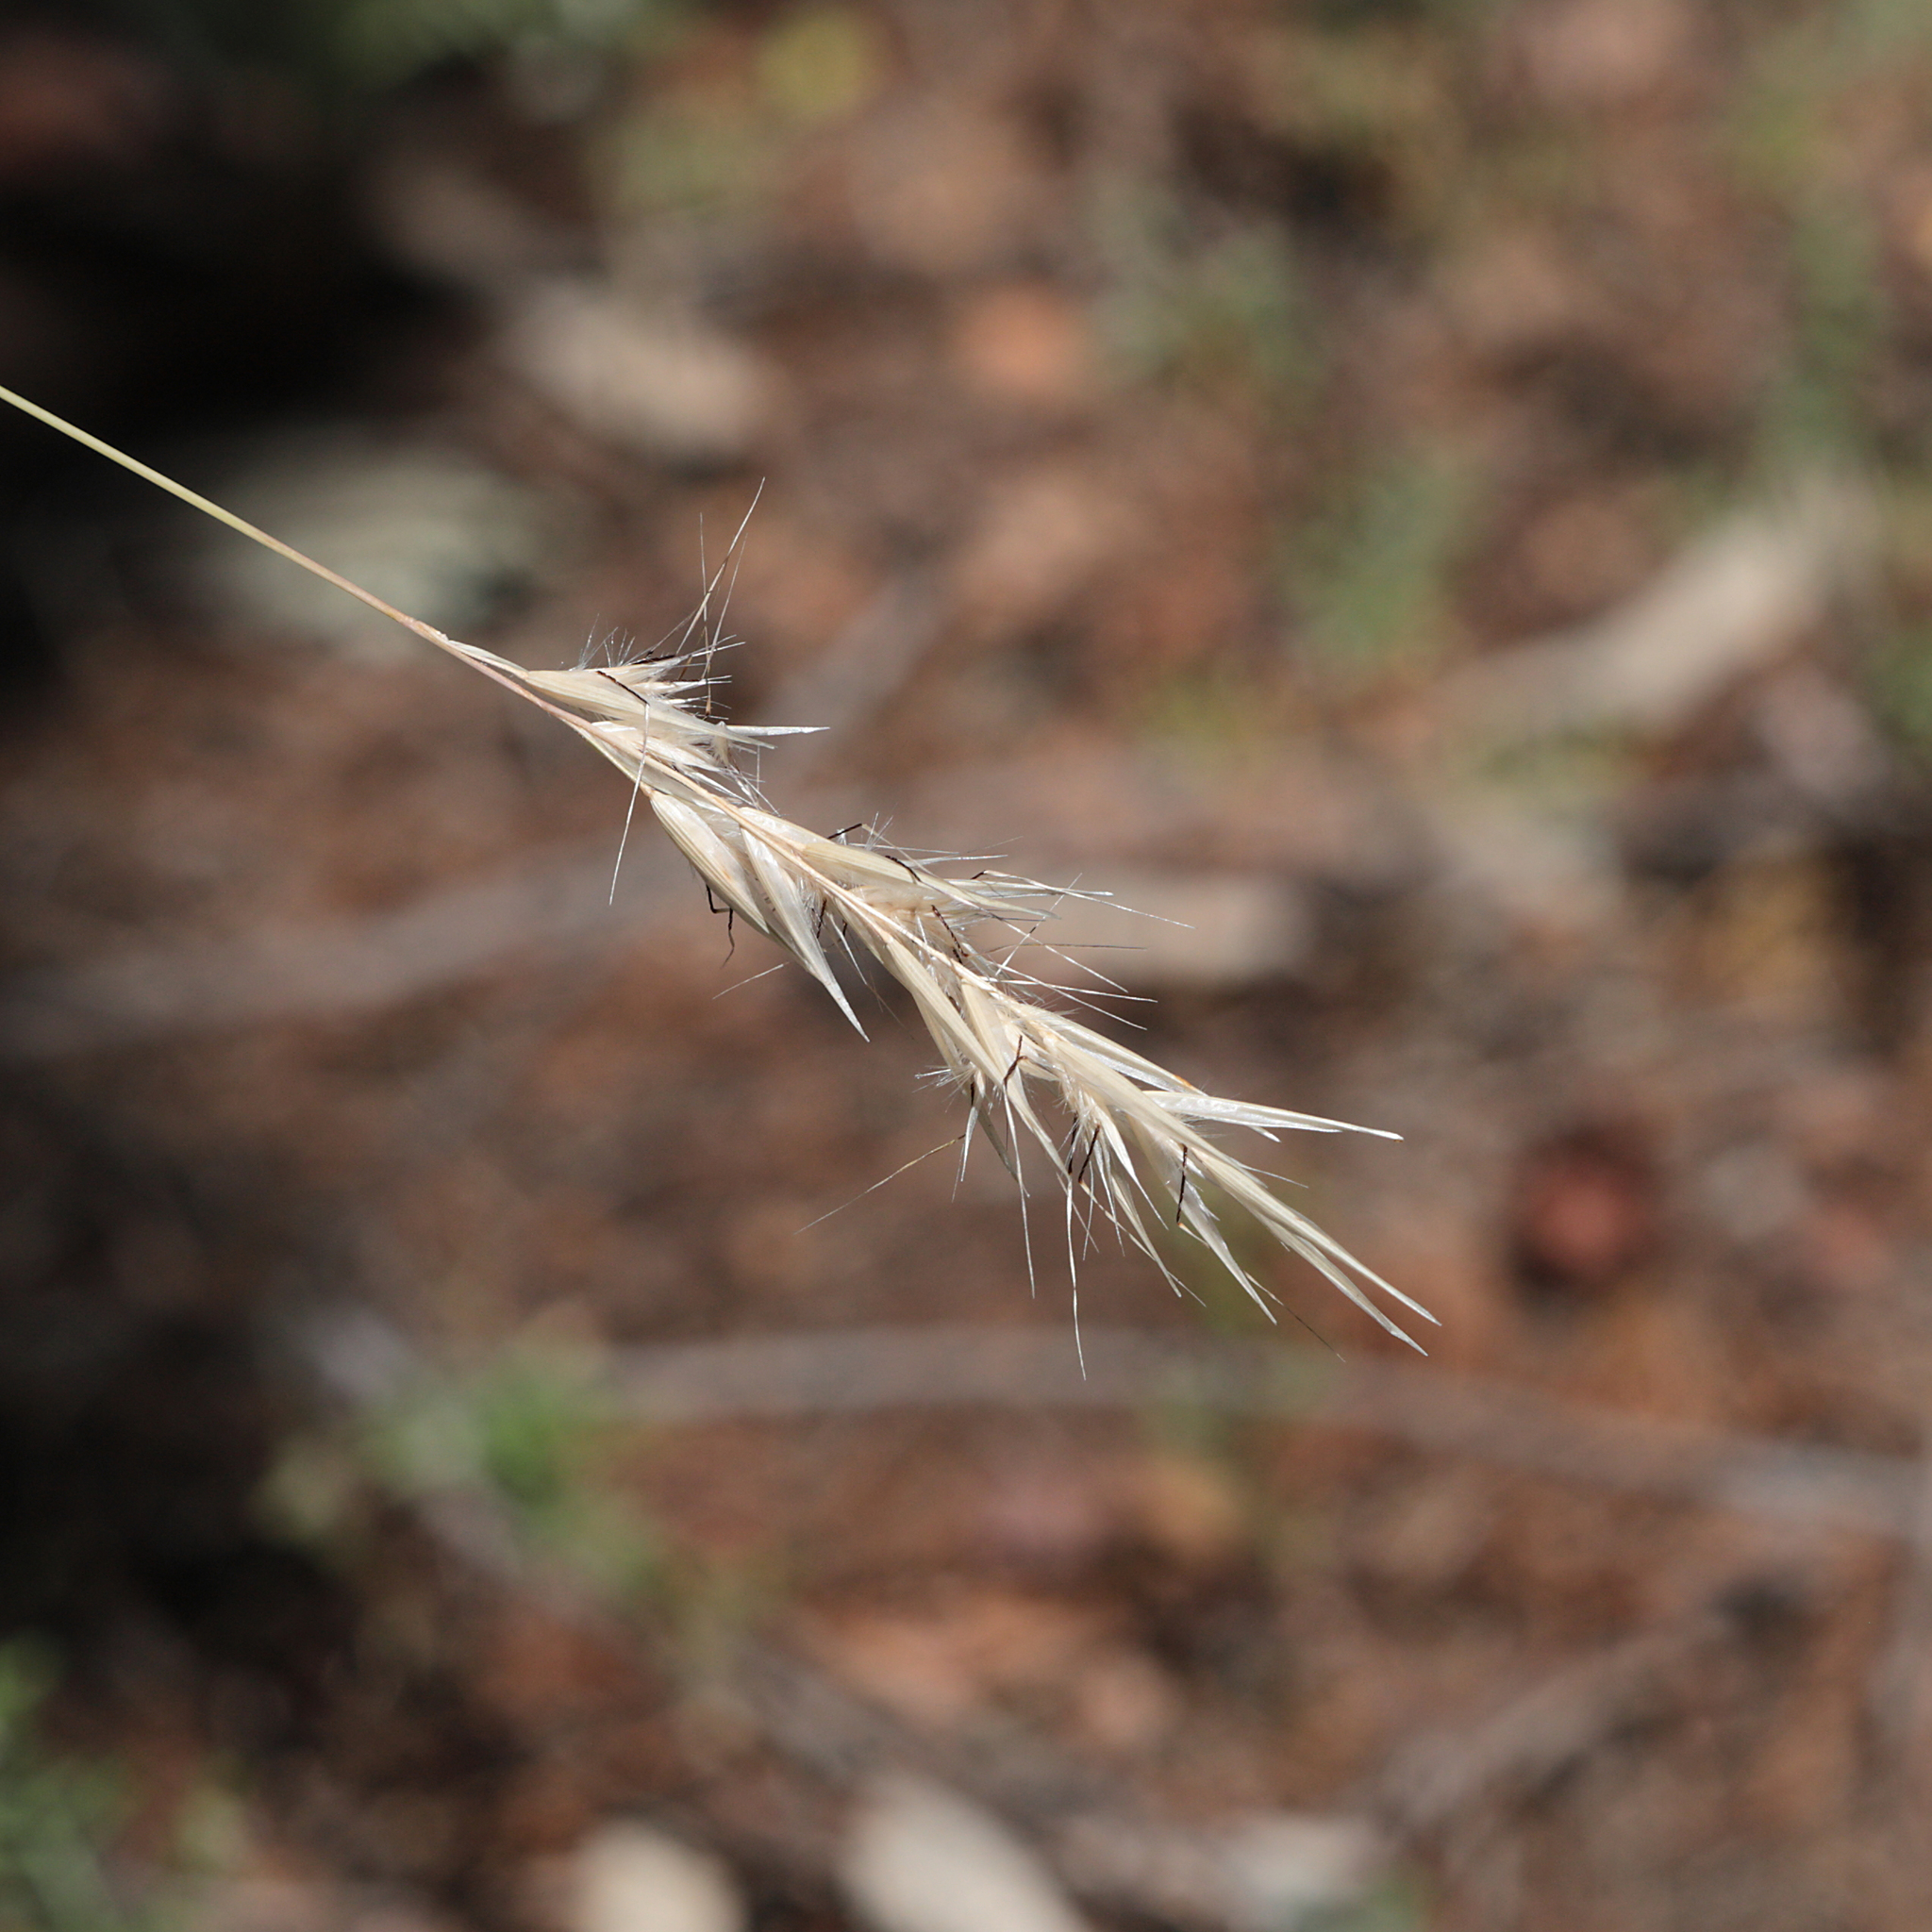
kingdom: Plantae
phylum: Tracheophyta
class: Liliopsida
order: Poales
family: Poaceae
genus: Rytidosperma
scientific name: Rytidosperma caespitosum
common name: Tufted wallaby grass
